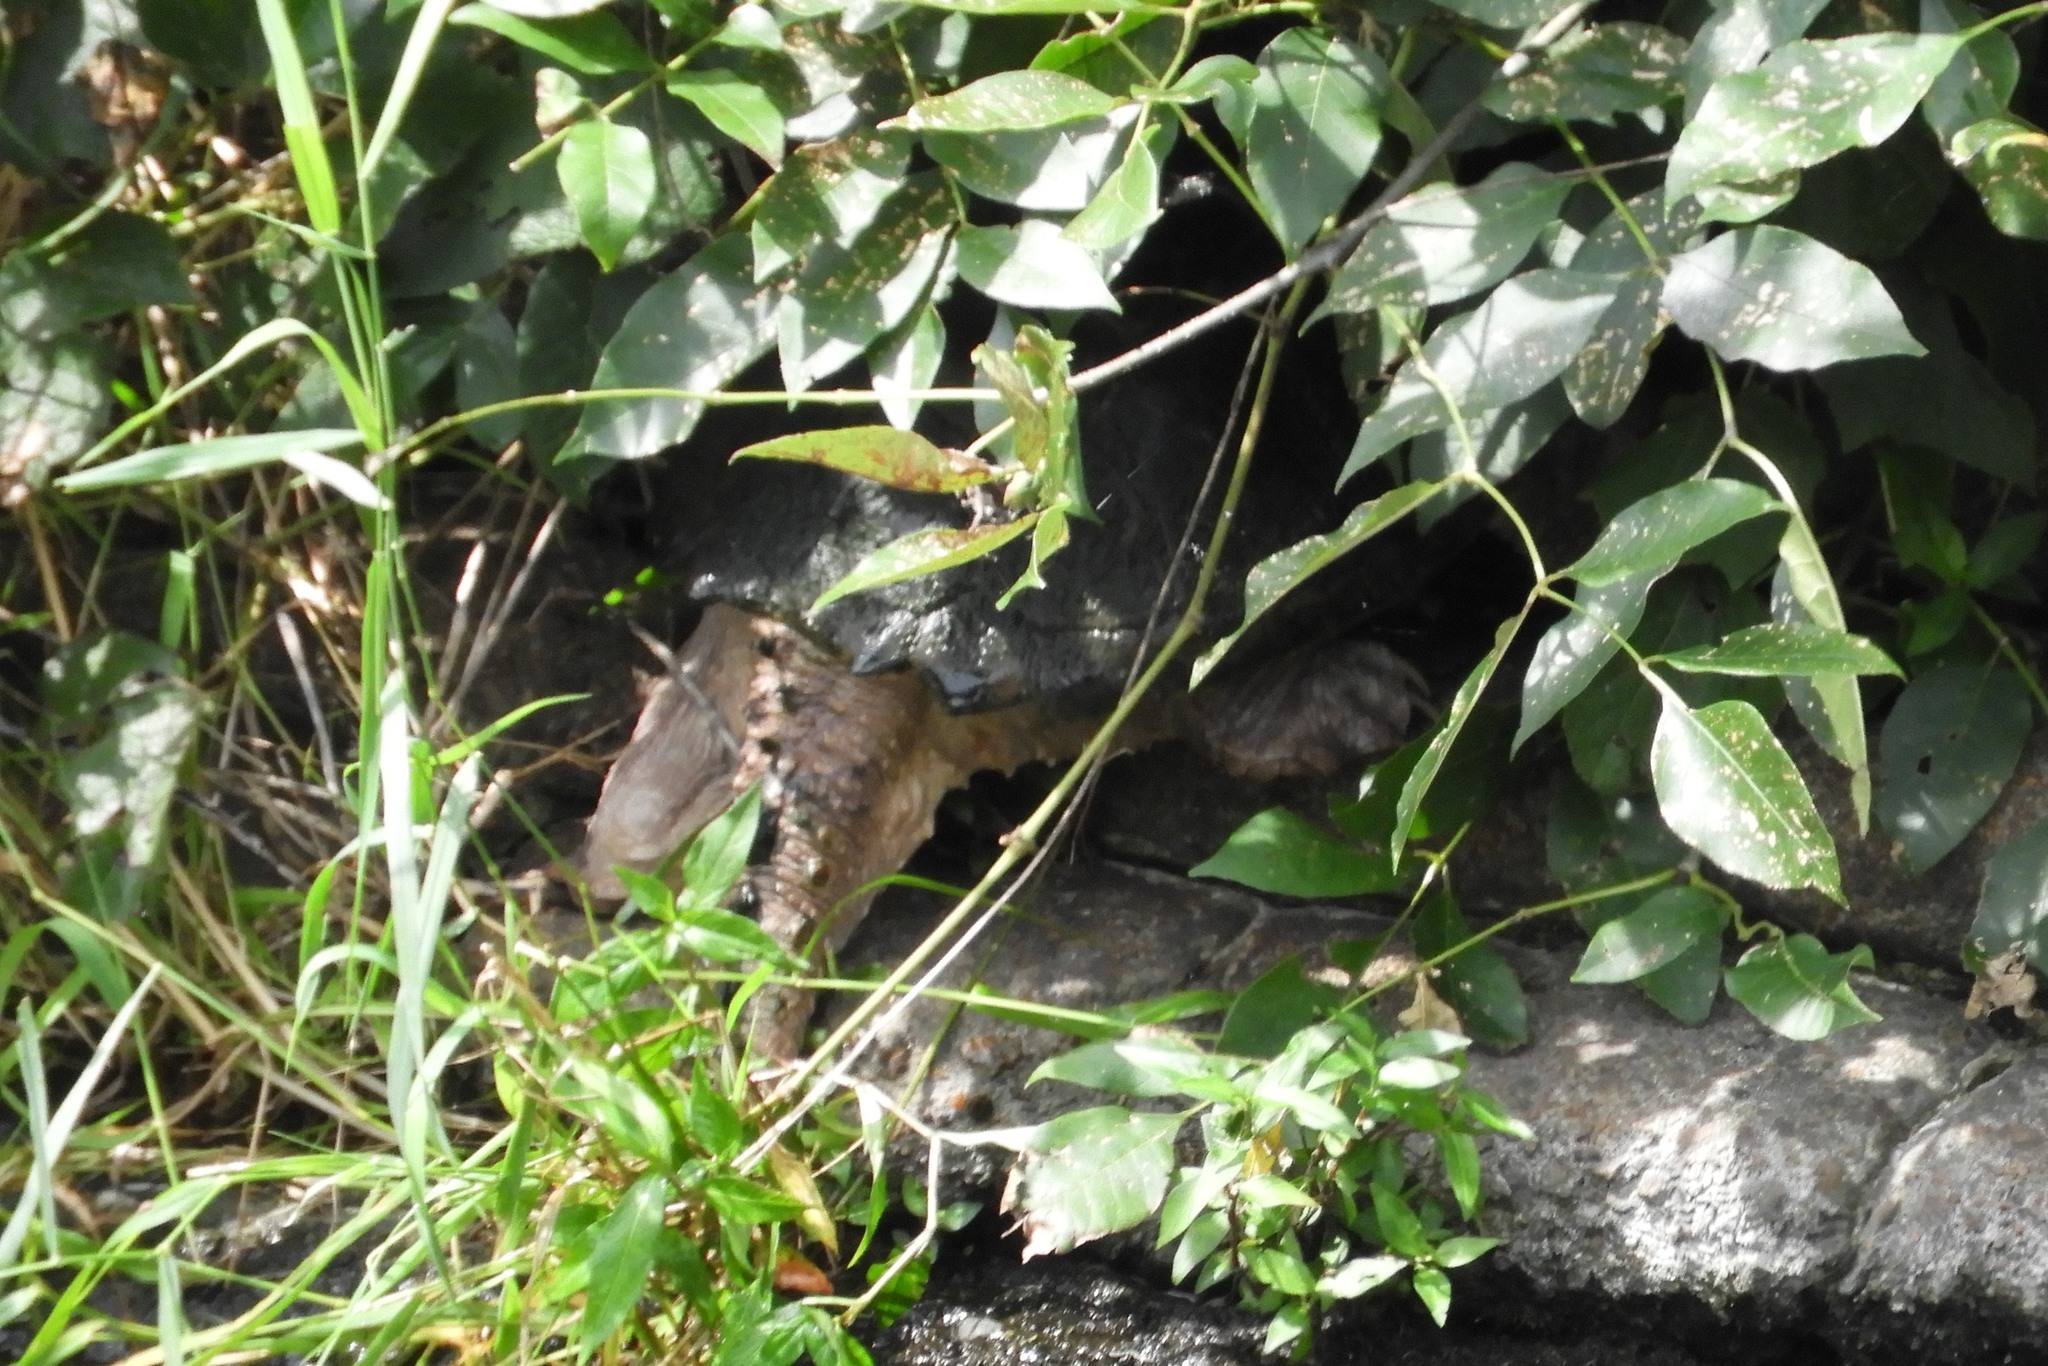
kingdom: Animalia
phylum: Chordata
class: Testudines
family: Chelydridae
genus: Chelydra
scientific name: Chelydra serpentina
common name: Common snapping turtle
